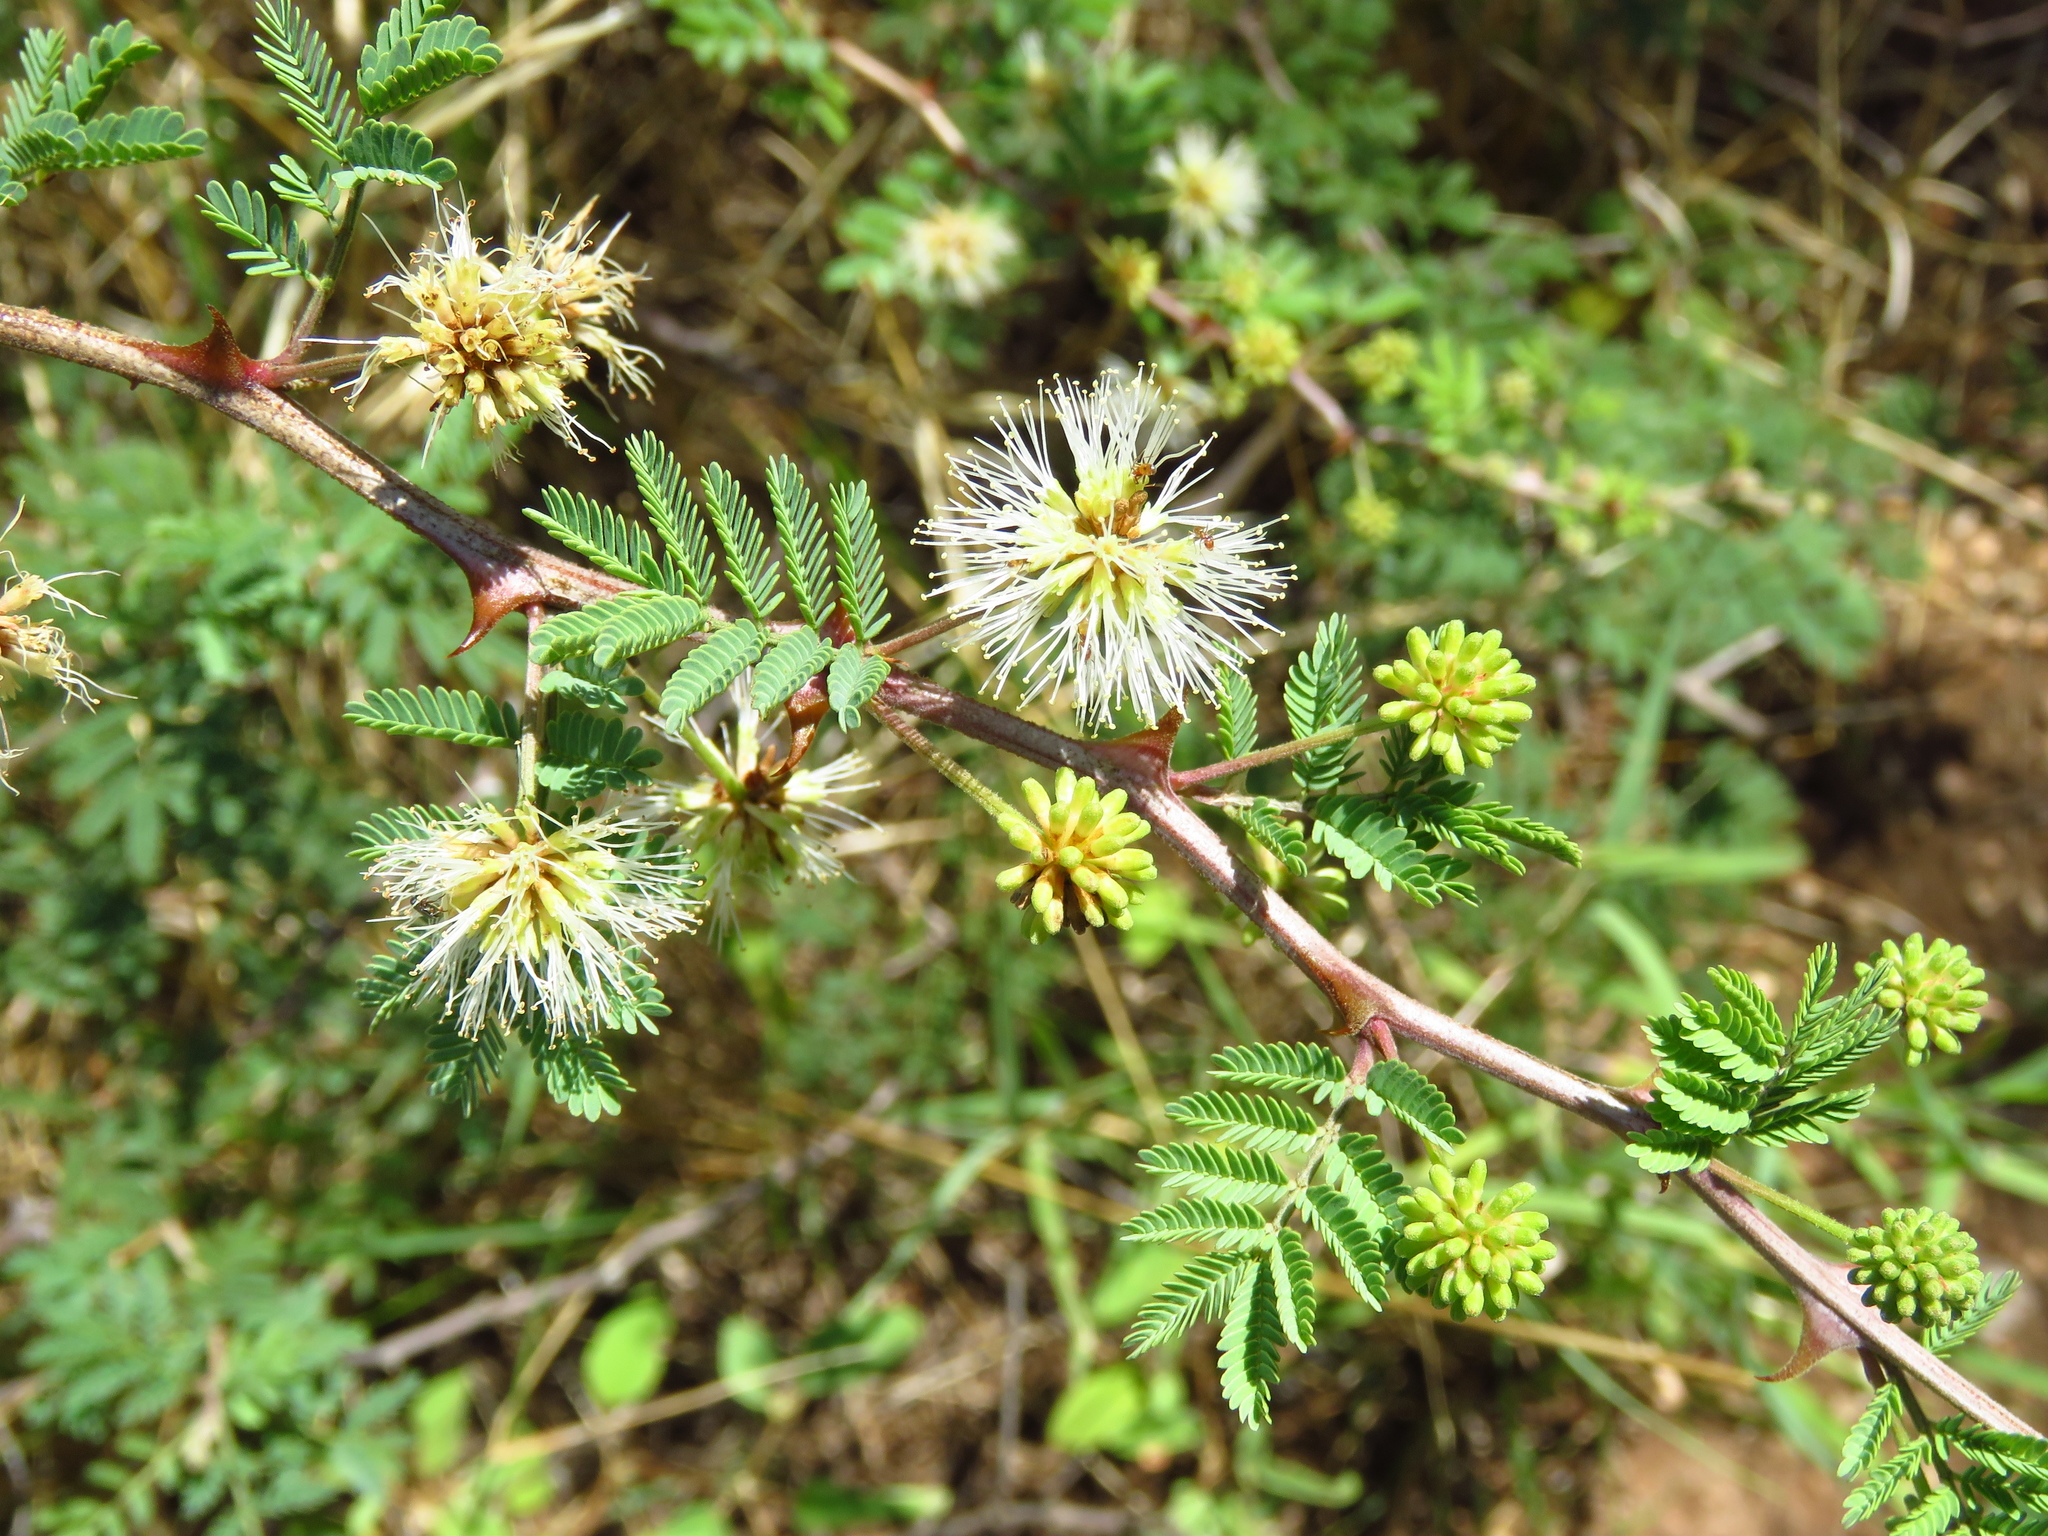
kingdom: Plantae
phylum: Tracheophyta
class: Magnoliopsida
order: Fabales
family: Fabaceae
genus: Mimosa
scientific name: Mimosa aculeaticarpa
